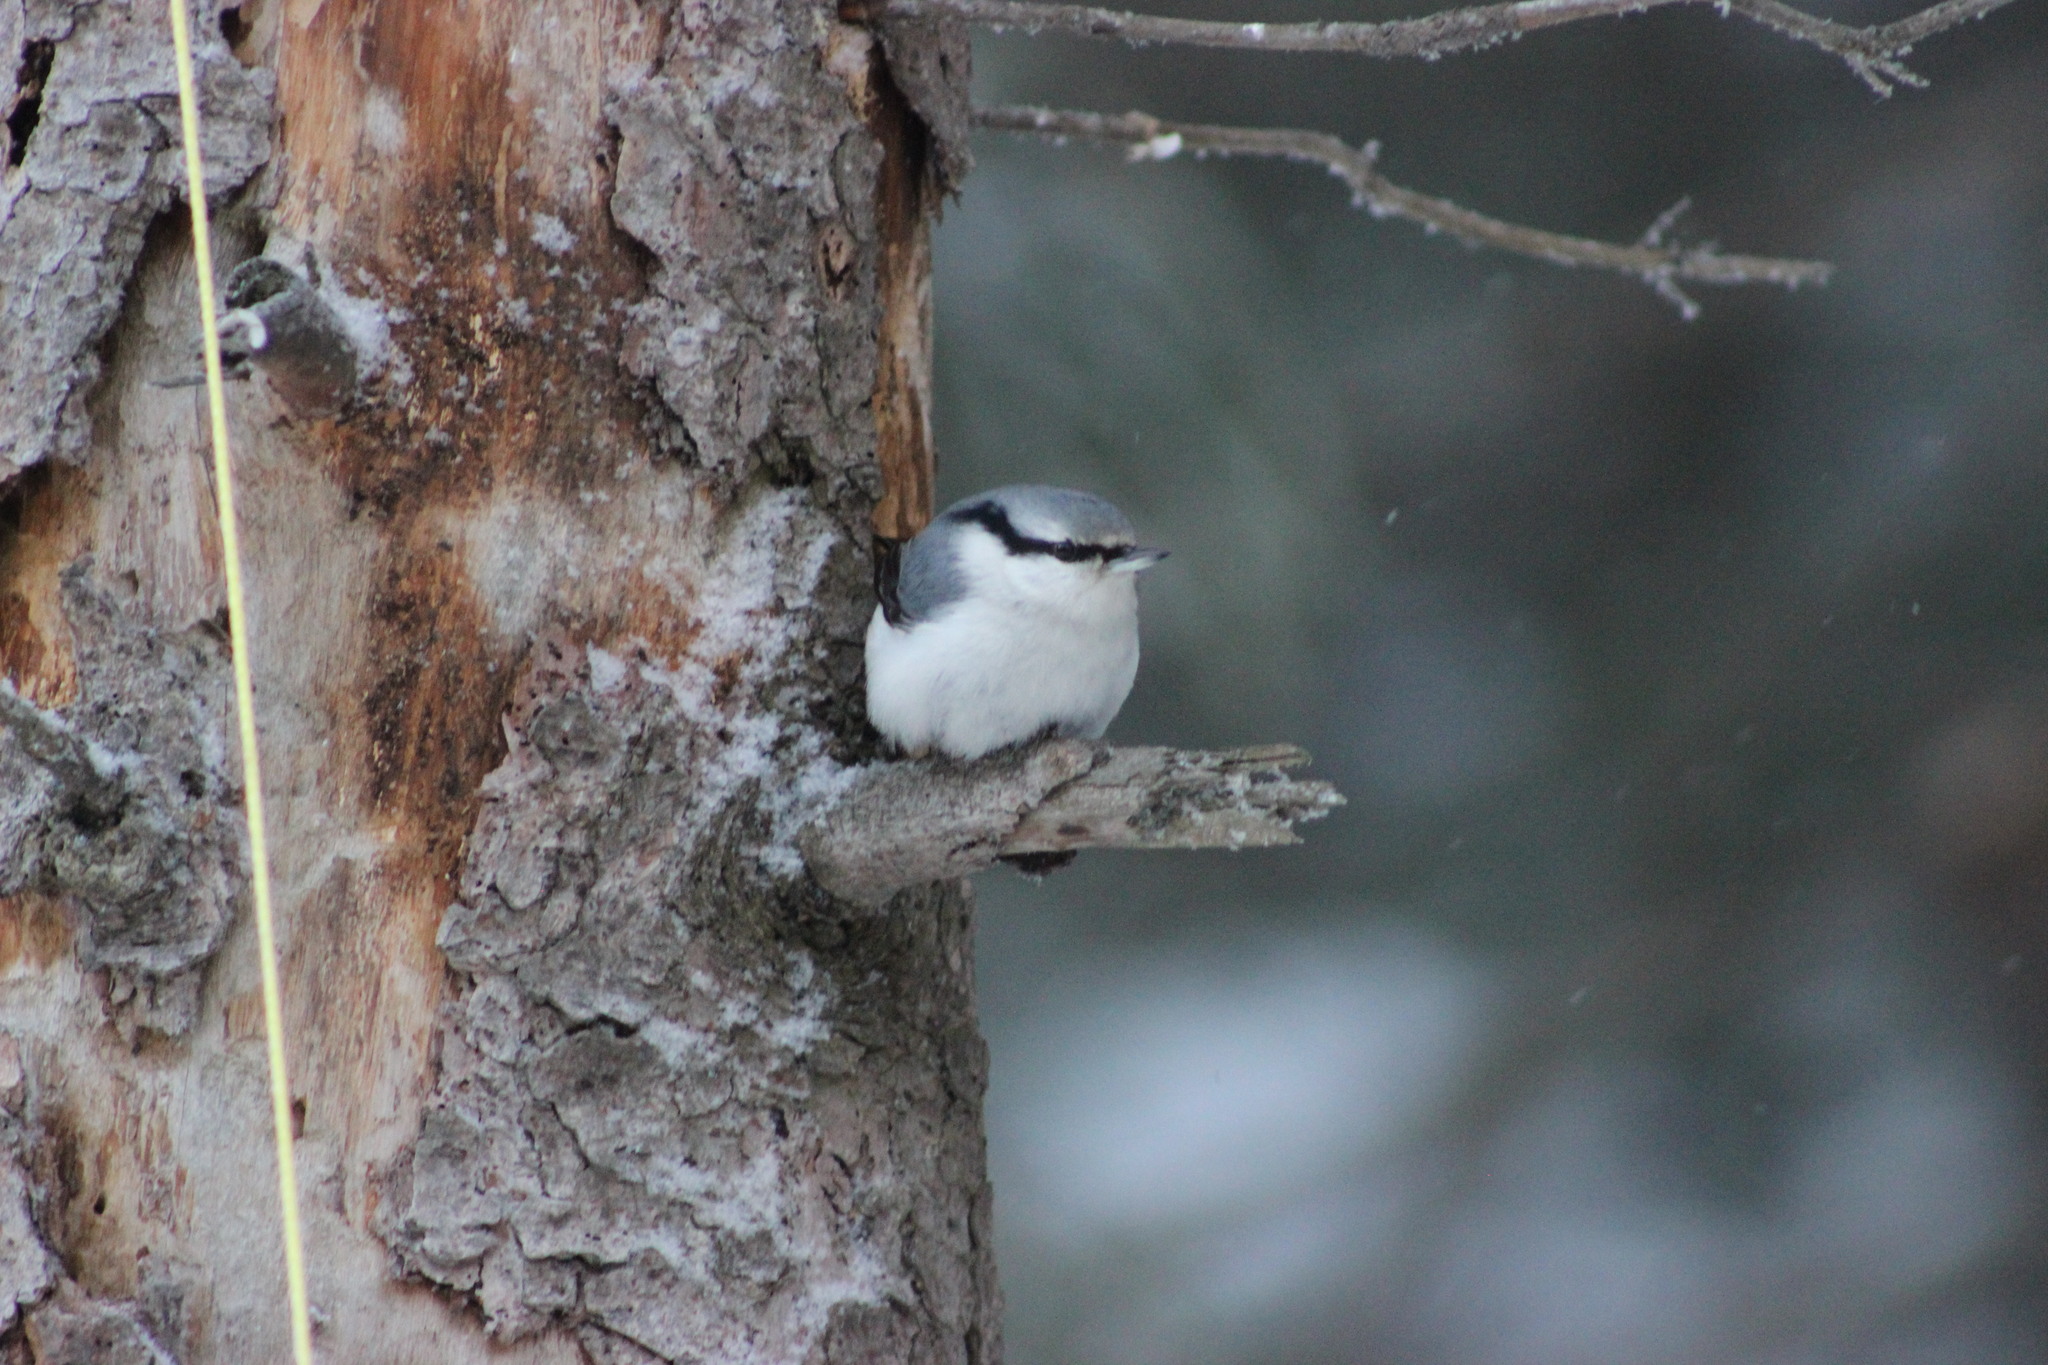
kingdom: Animalia
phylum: Chordata
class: Aves
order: Passeriformes
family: Sittidae
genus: Sitta
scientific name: Sitta europaea
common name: Eurasian nuthatch
